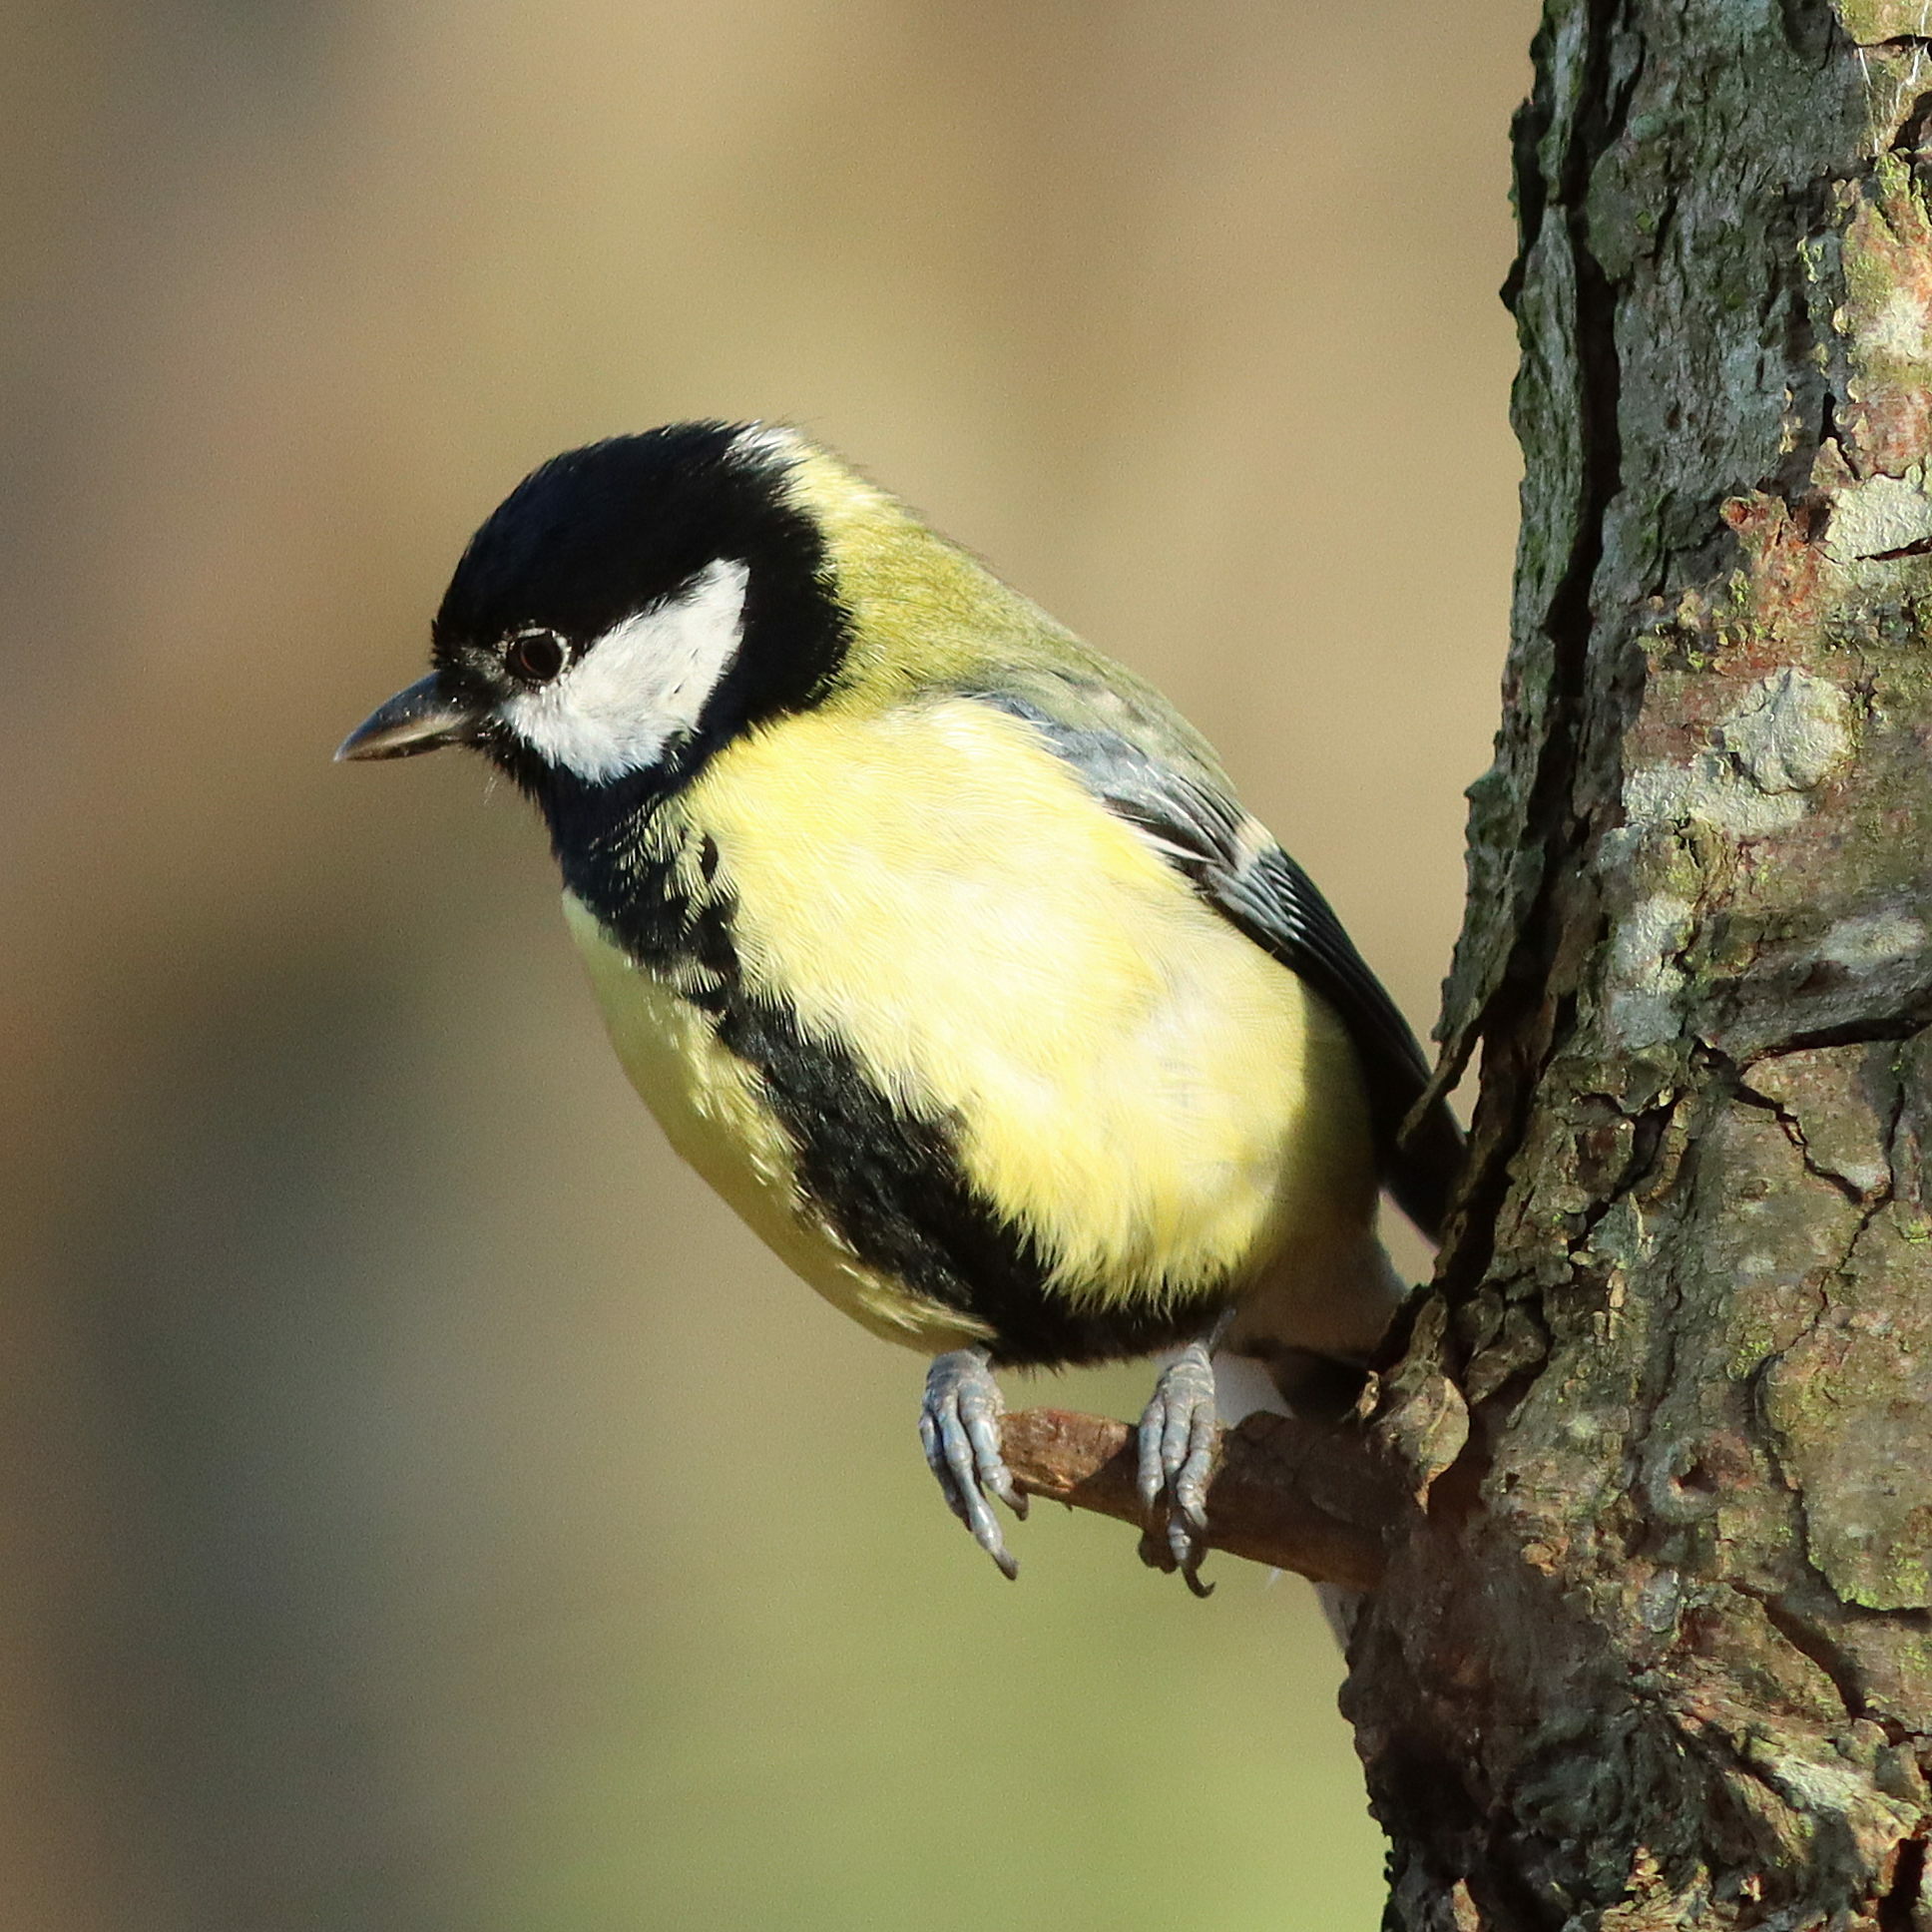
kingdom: Animalia
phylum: Chordata
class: Aves
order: Passeriformes
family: Paridae
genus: Parus
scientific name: Parus major
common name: Great tit
